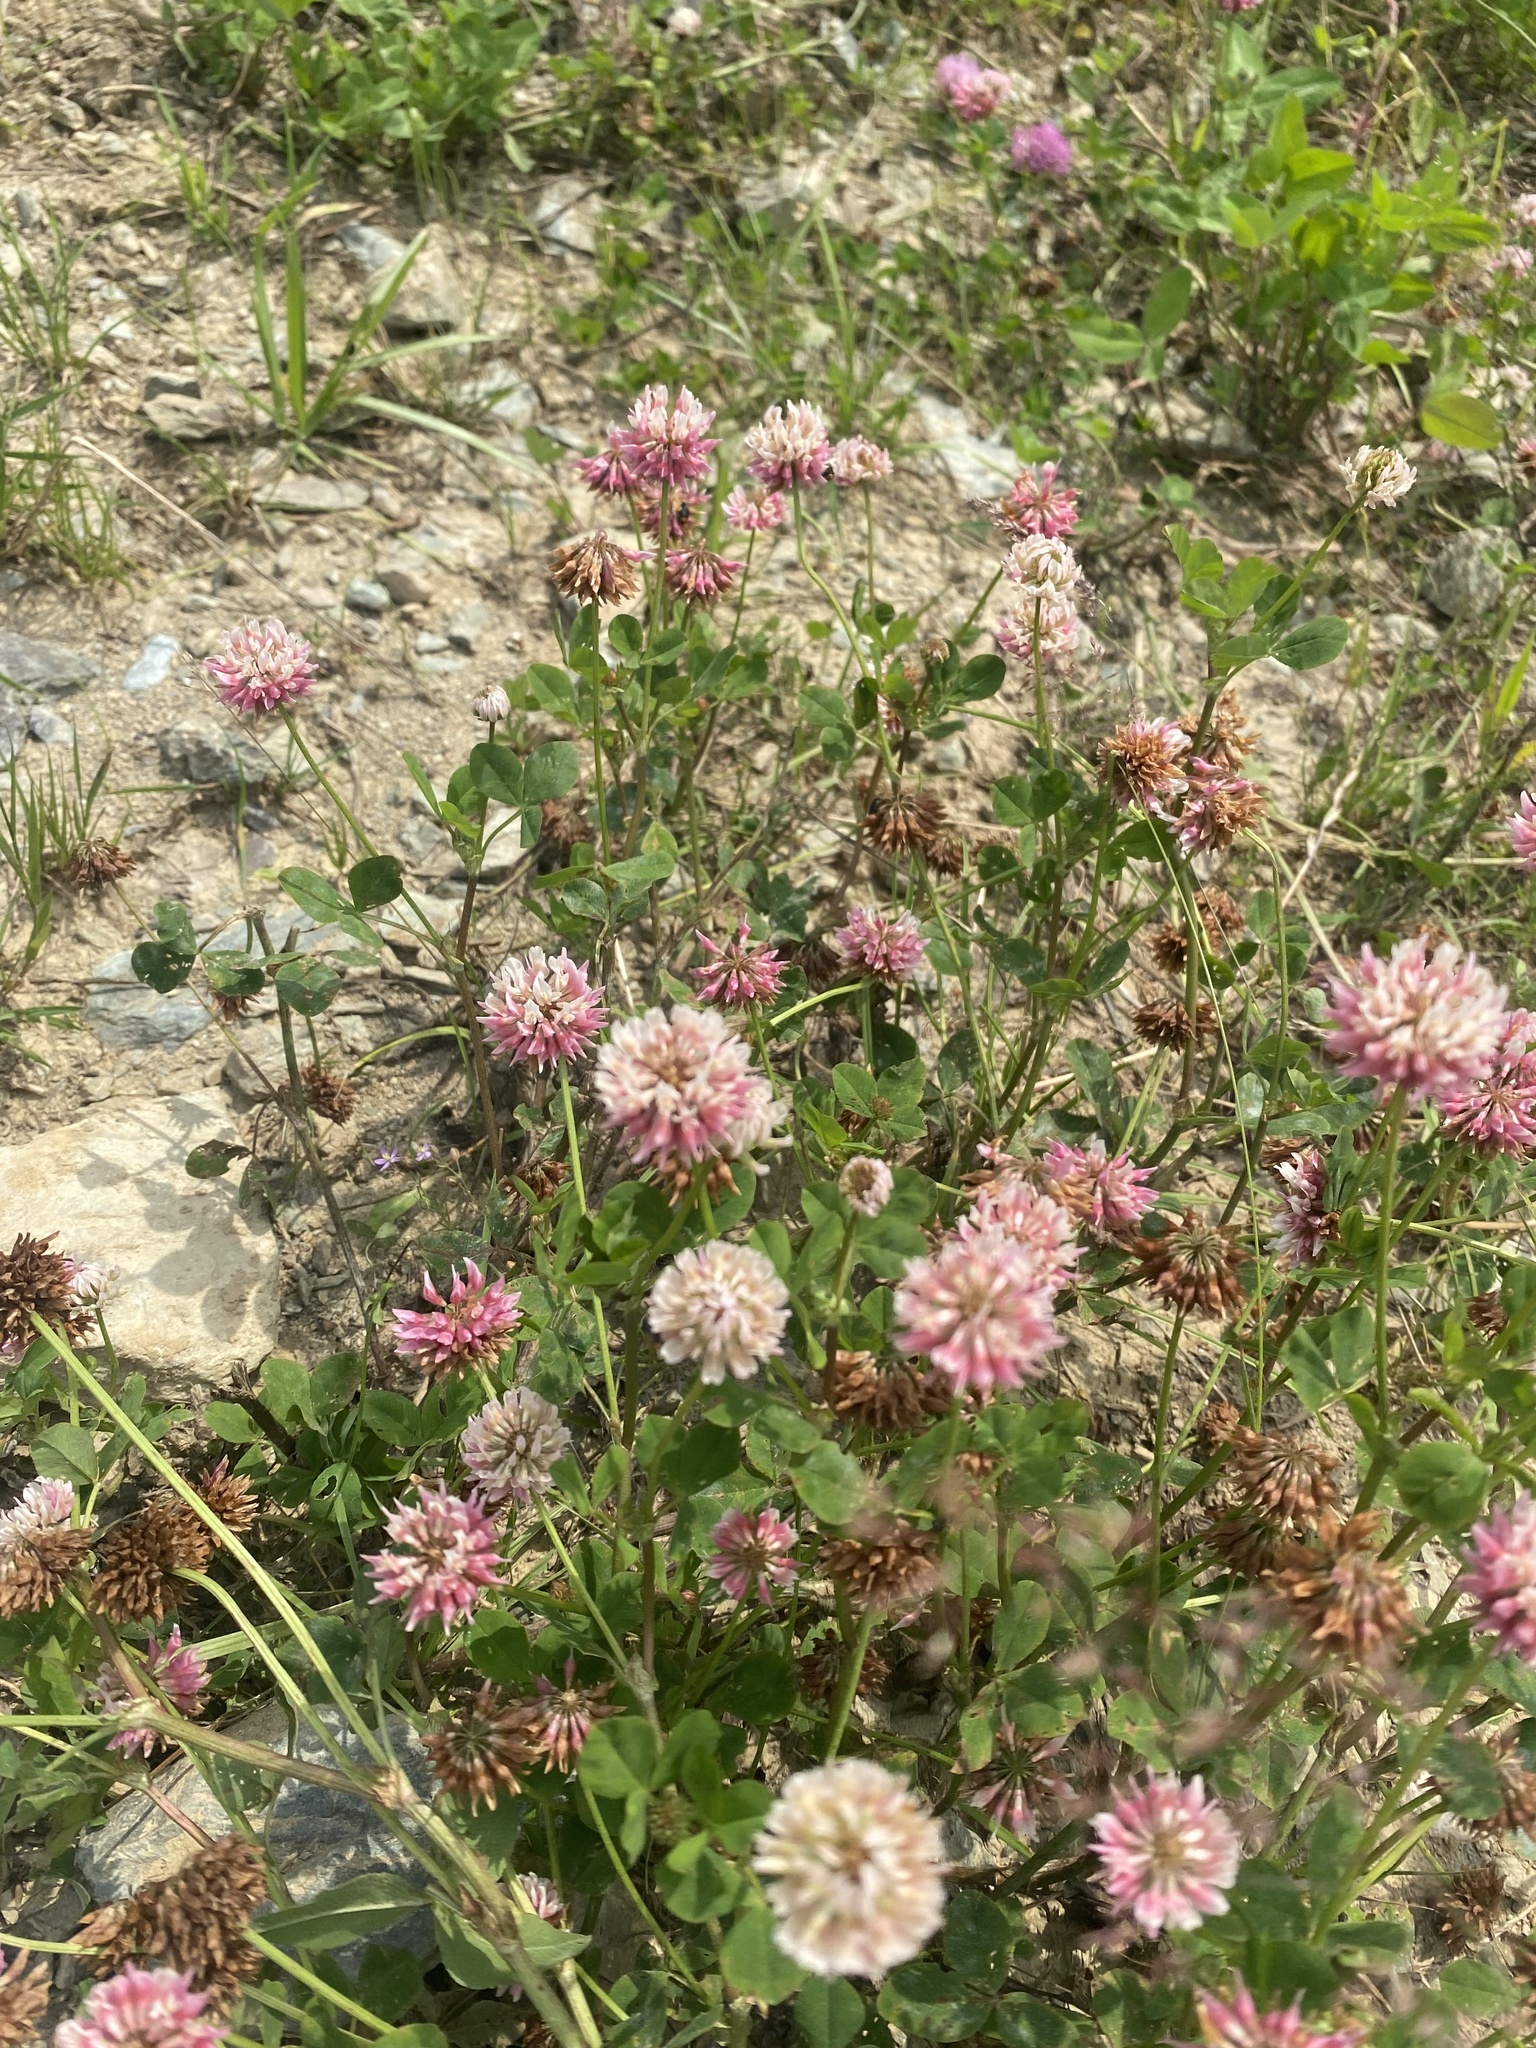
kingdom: Plantae
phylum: Tracheophyta
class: Magnoliopsida
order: Fabales
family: Fabaceae
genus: Trifolium
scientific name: Trifolium hybridum
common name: Alsike clover
